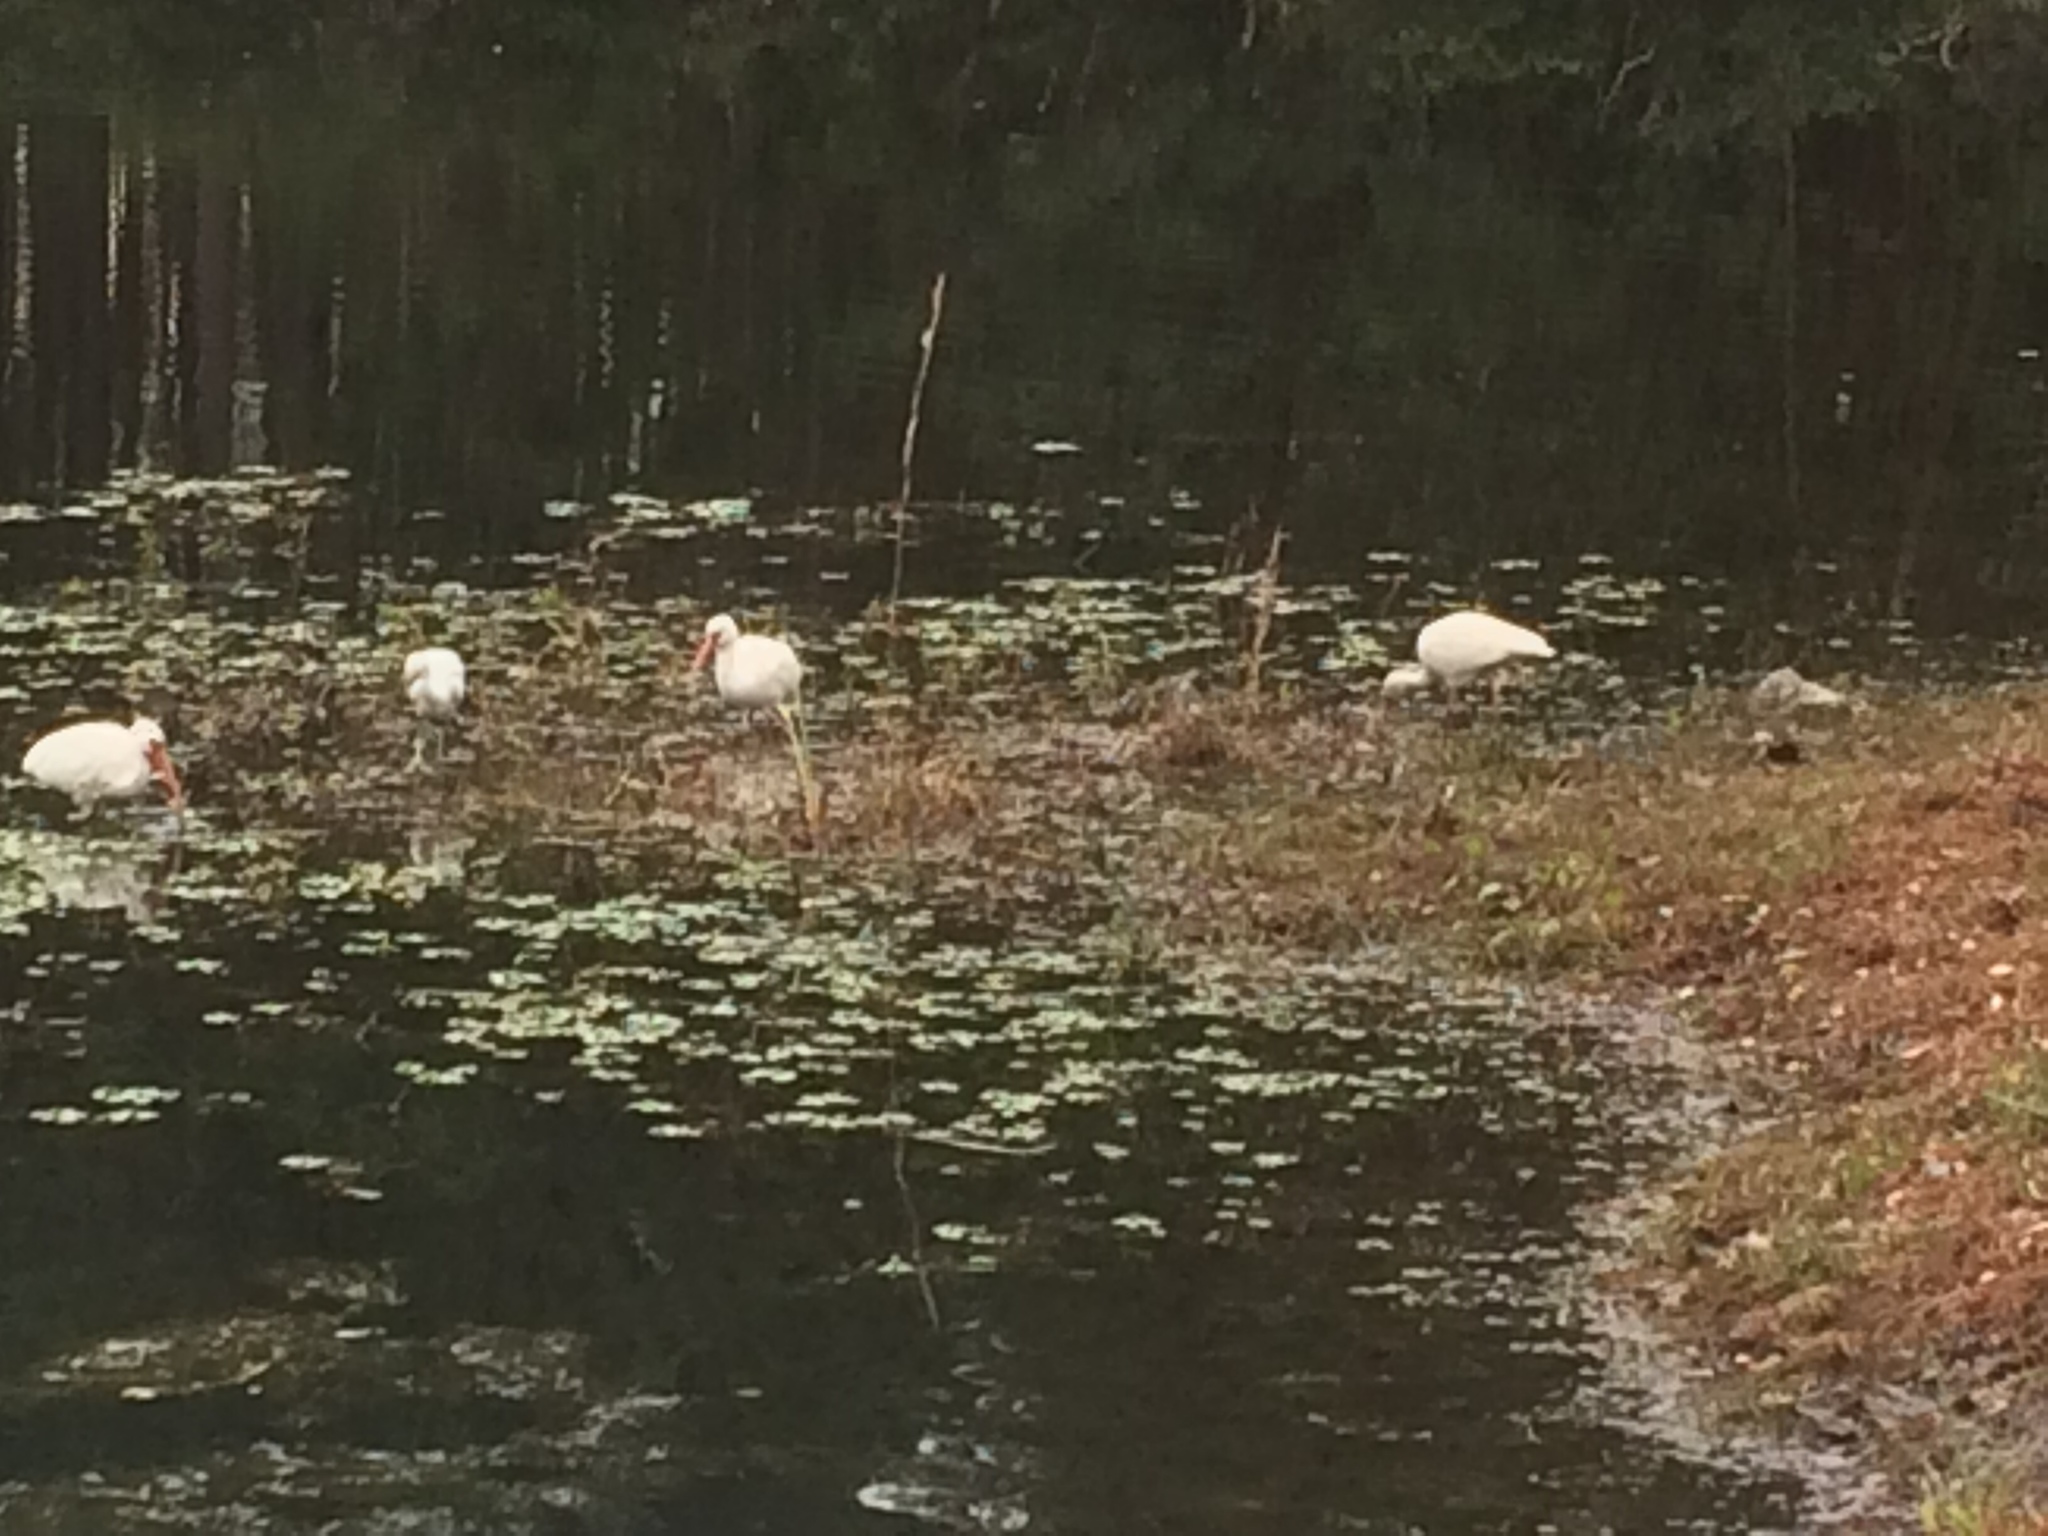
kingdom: Animalia
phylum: Chordata
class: Aves
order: Pelecaniformes
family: Threskiornithidae
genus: Eudocimus
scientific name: Eudocimus albus
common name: White ibis
